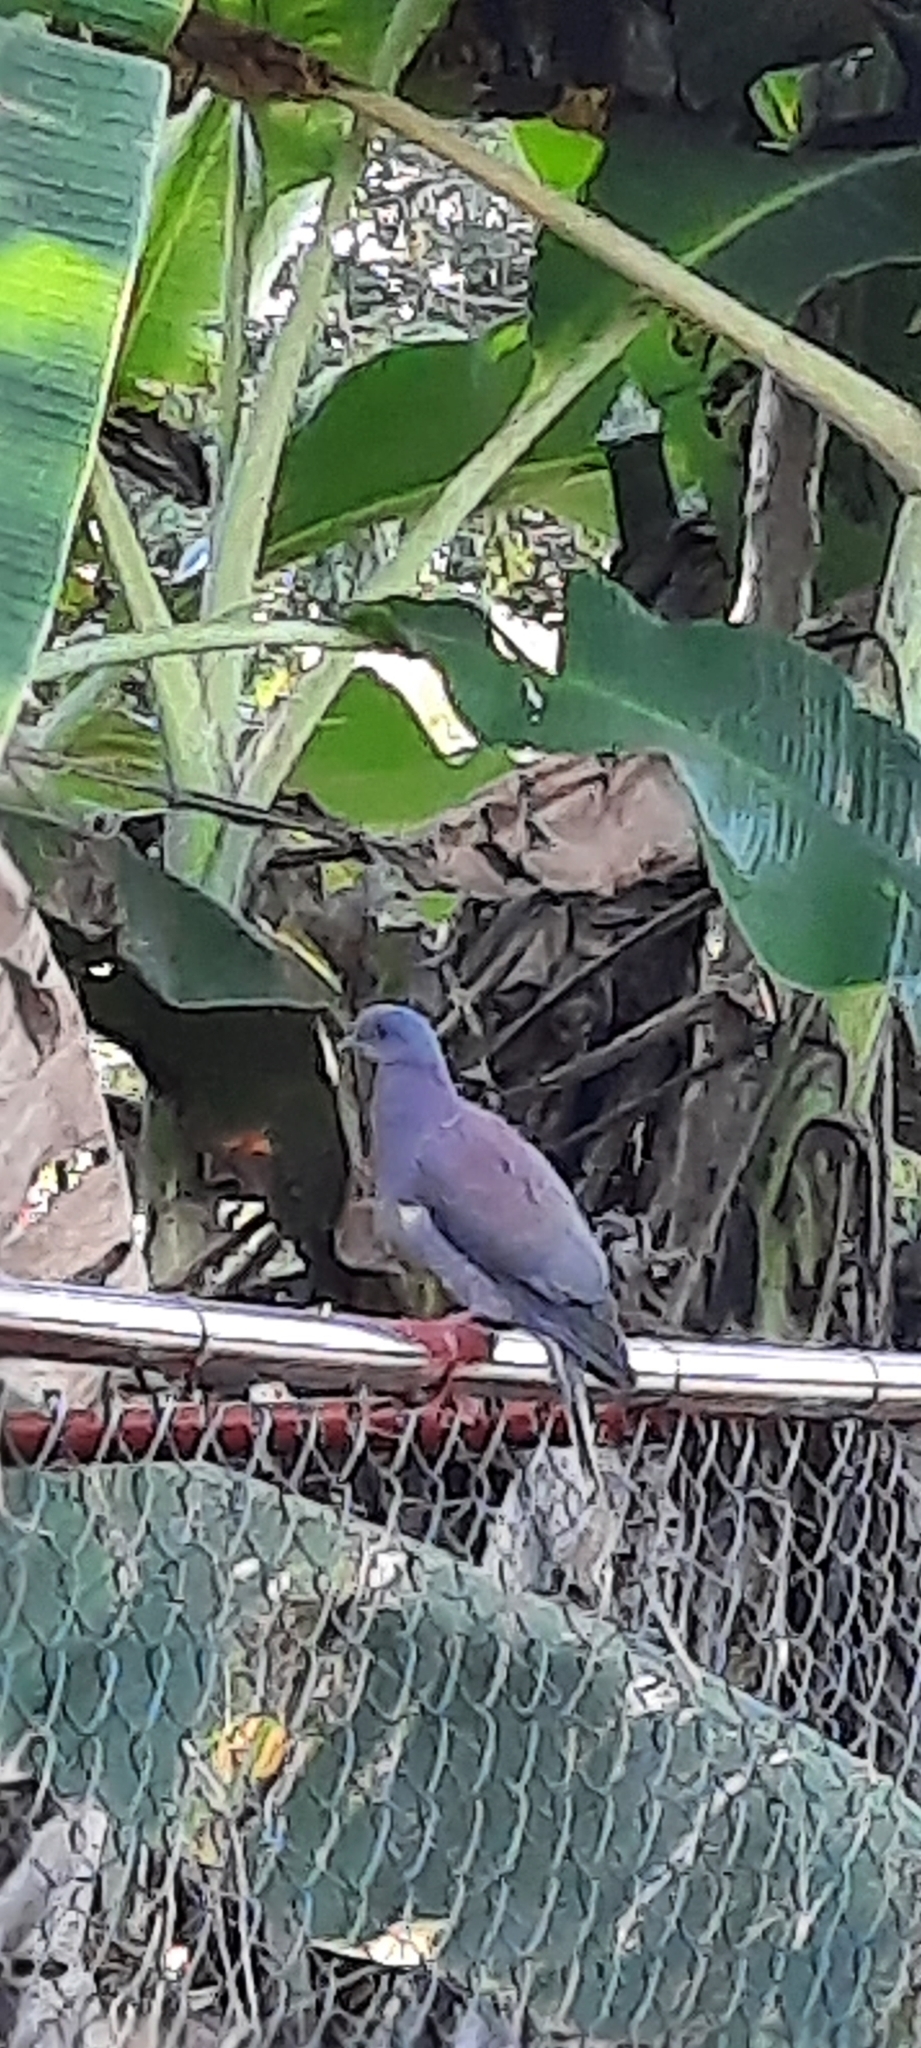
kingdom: Animalia
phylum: Chordata
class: Aves
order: Columbiformes
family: Columbidae
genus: Patagioenas
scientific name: Patagioenas cayennensis
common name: Pale-vented pigeon
